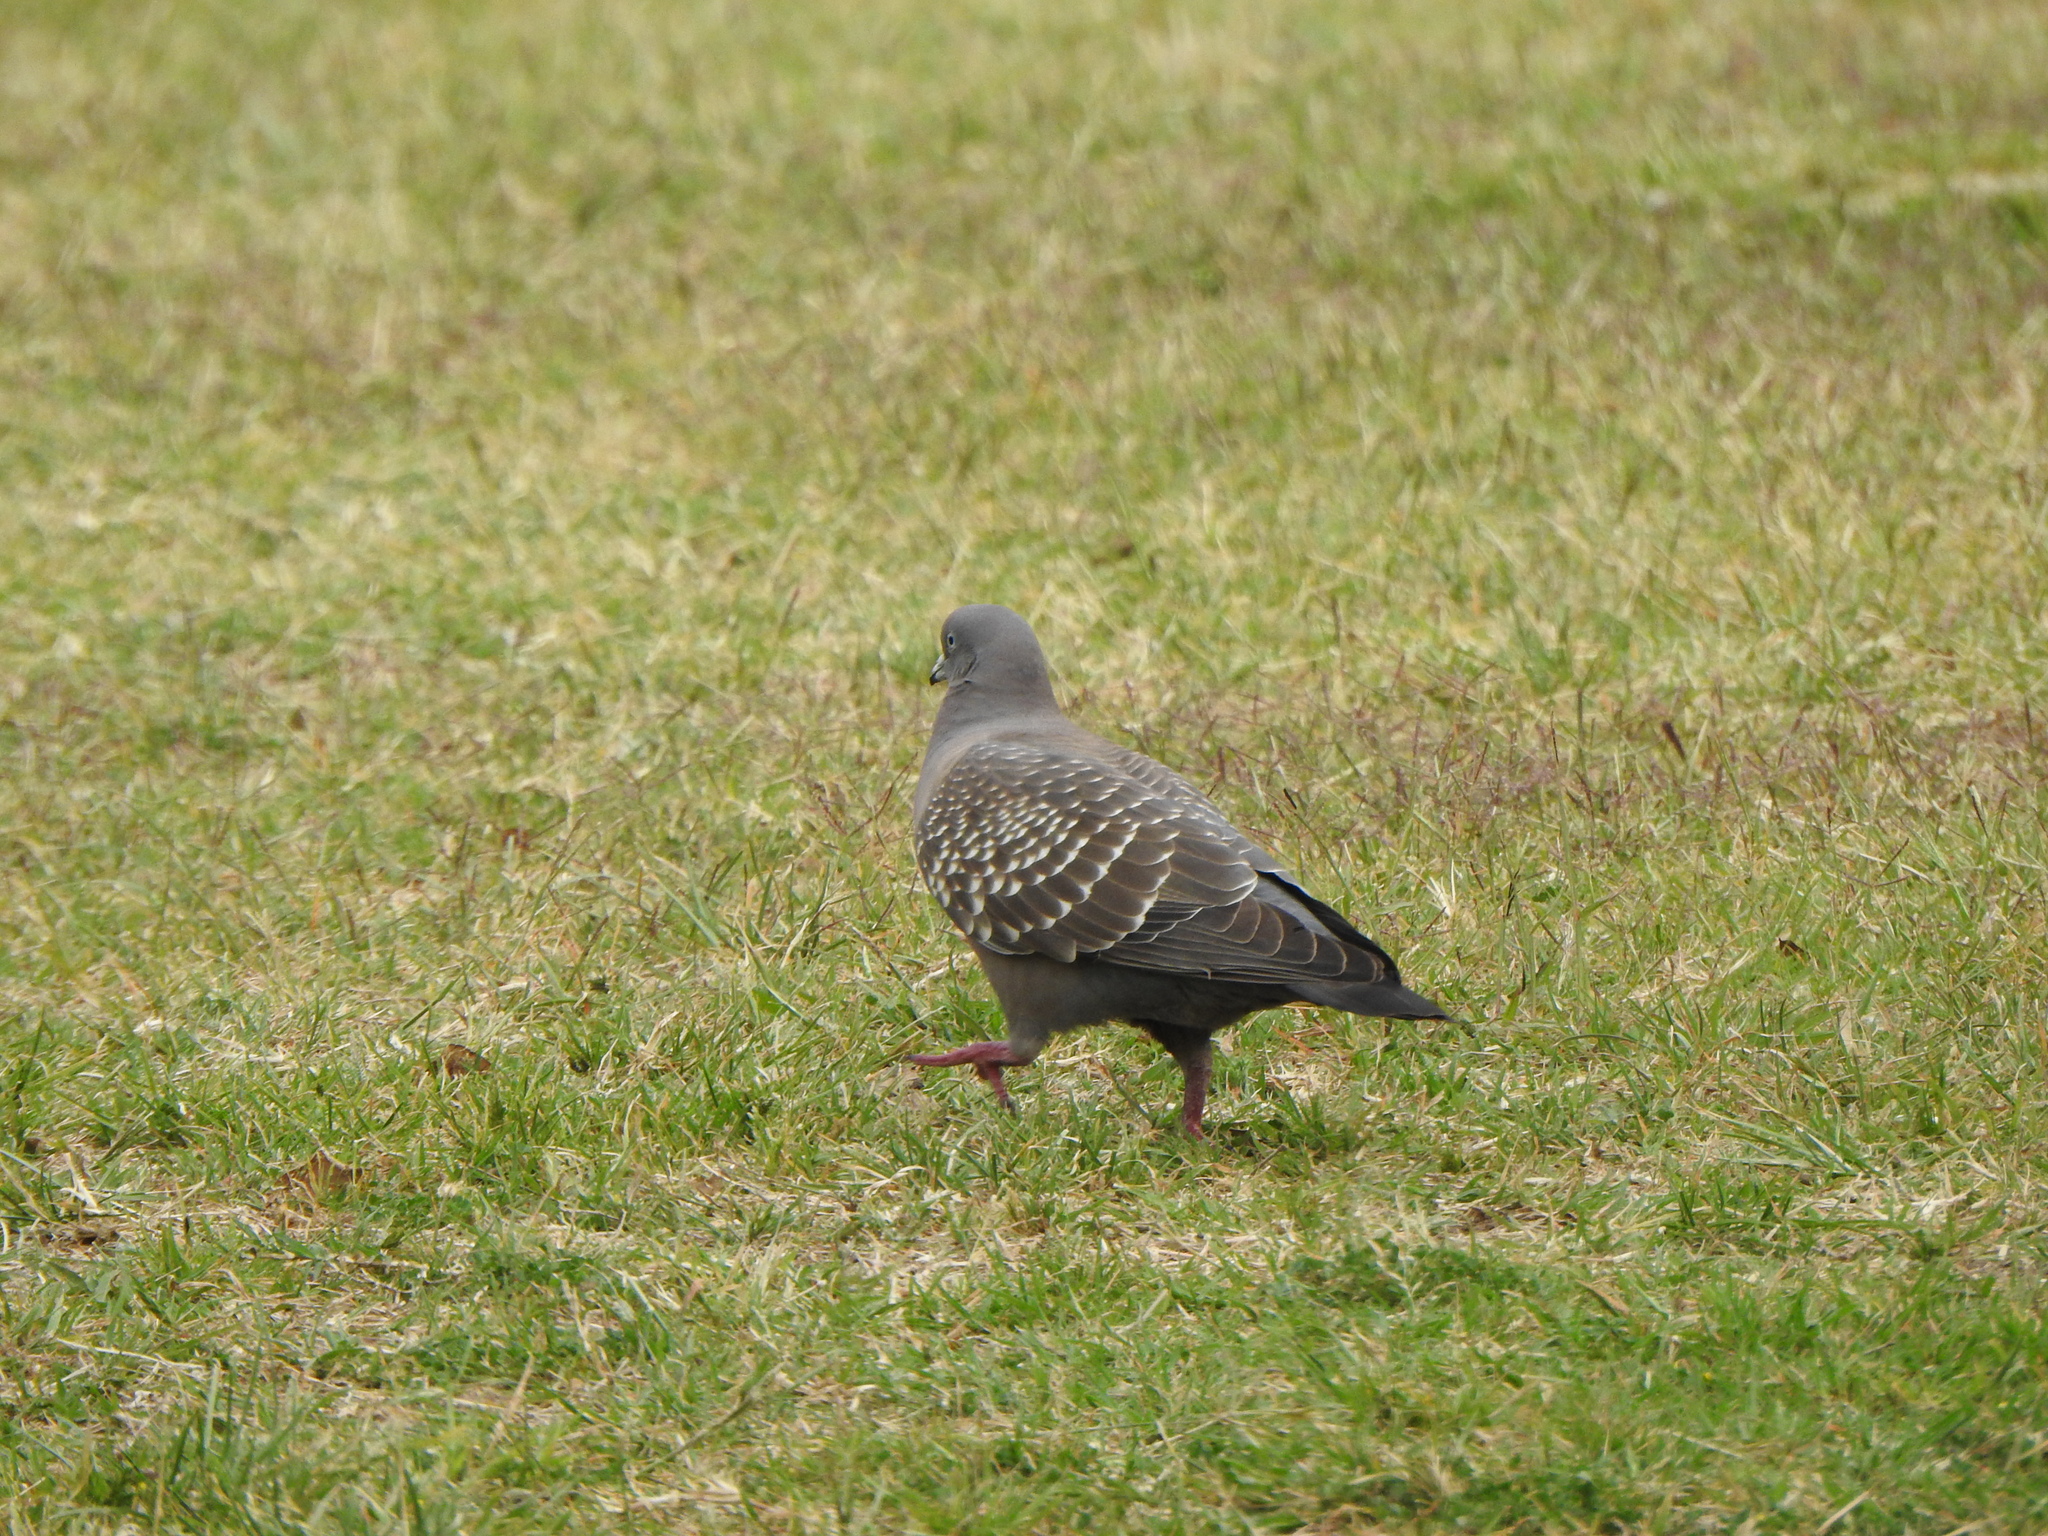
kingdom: Animalia
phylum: Chordata
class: Aves
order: Columbiformes
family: Columbidae
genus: Patagioenas
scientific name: Patagioenas maculosa
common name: Spot-winged pigeon
